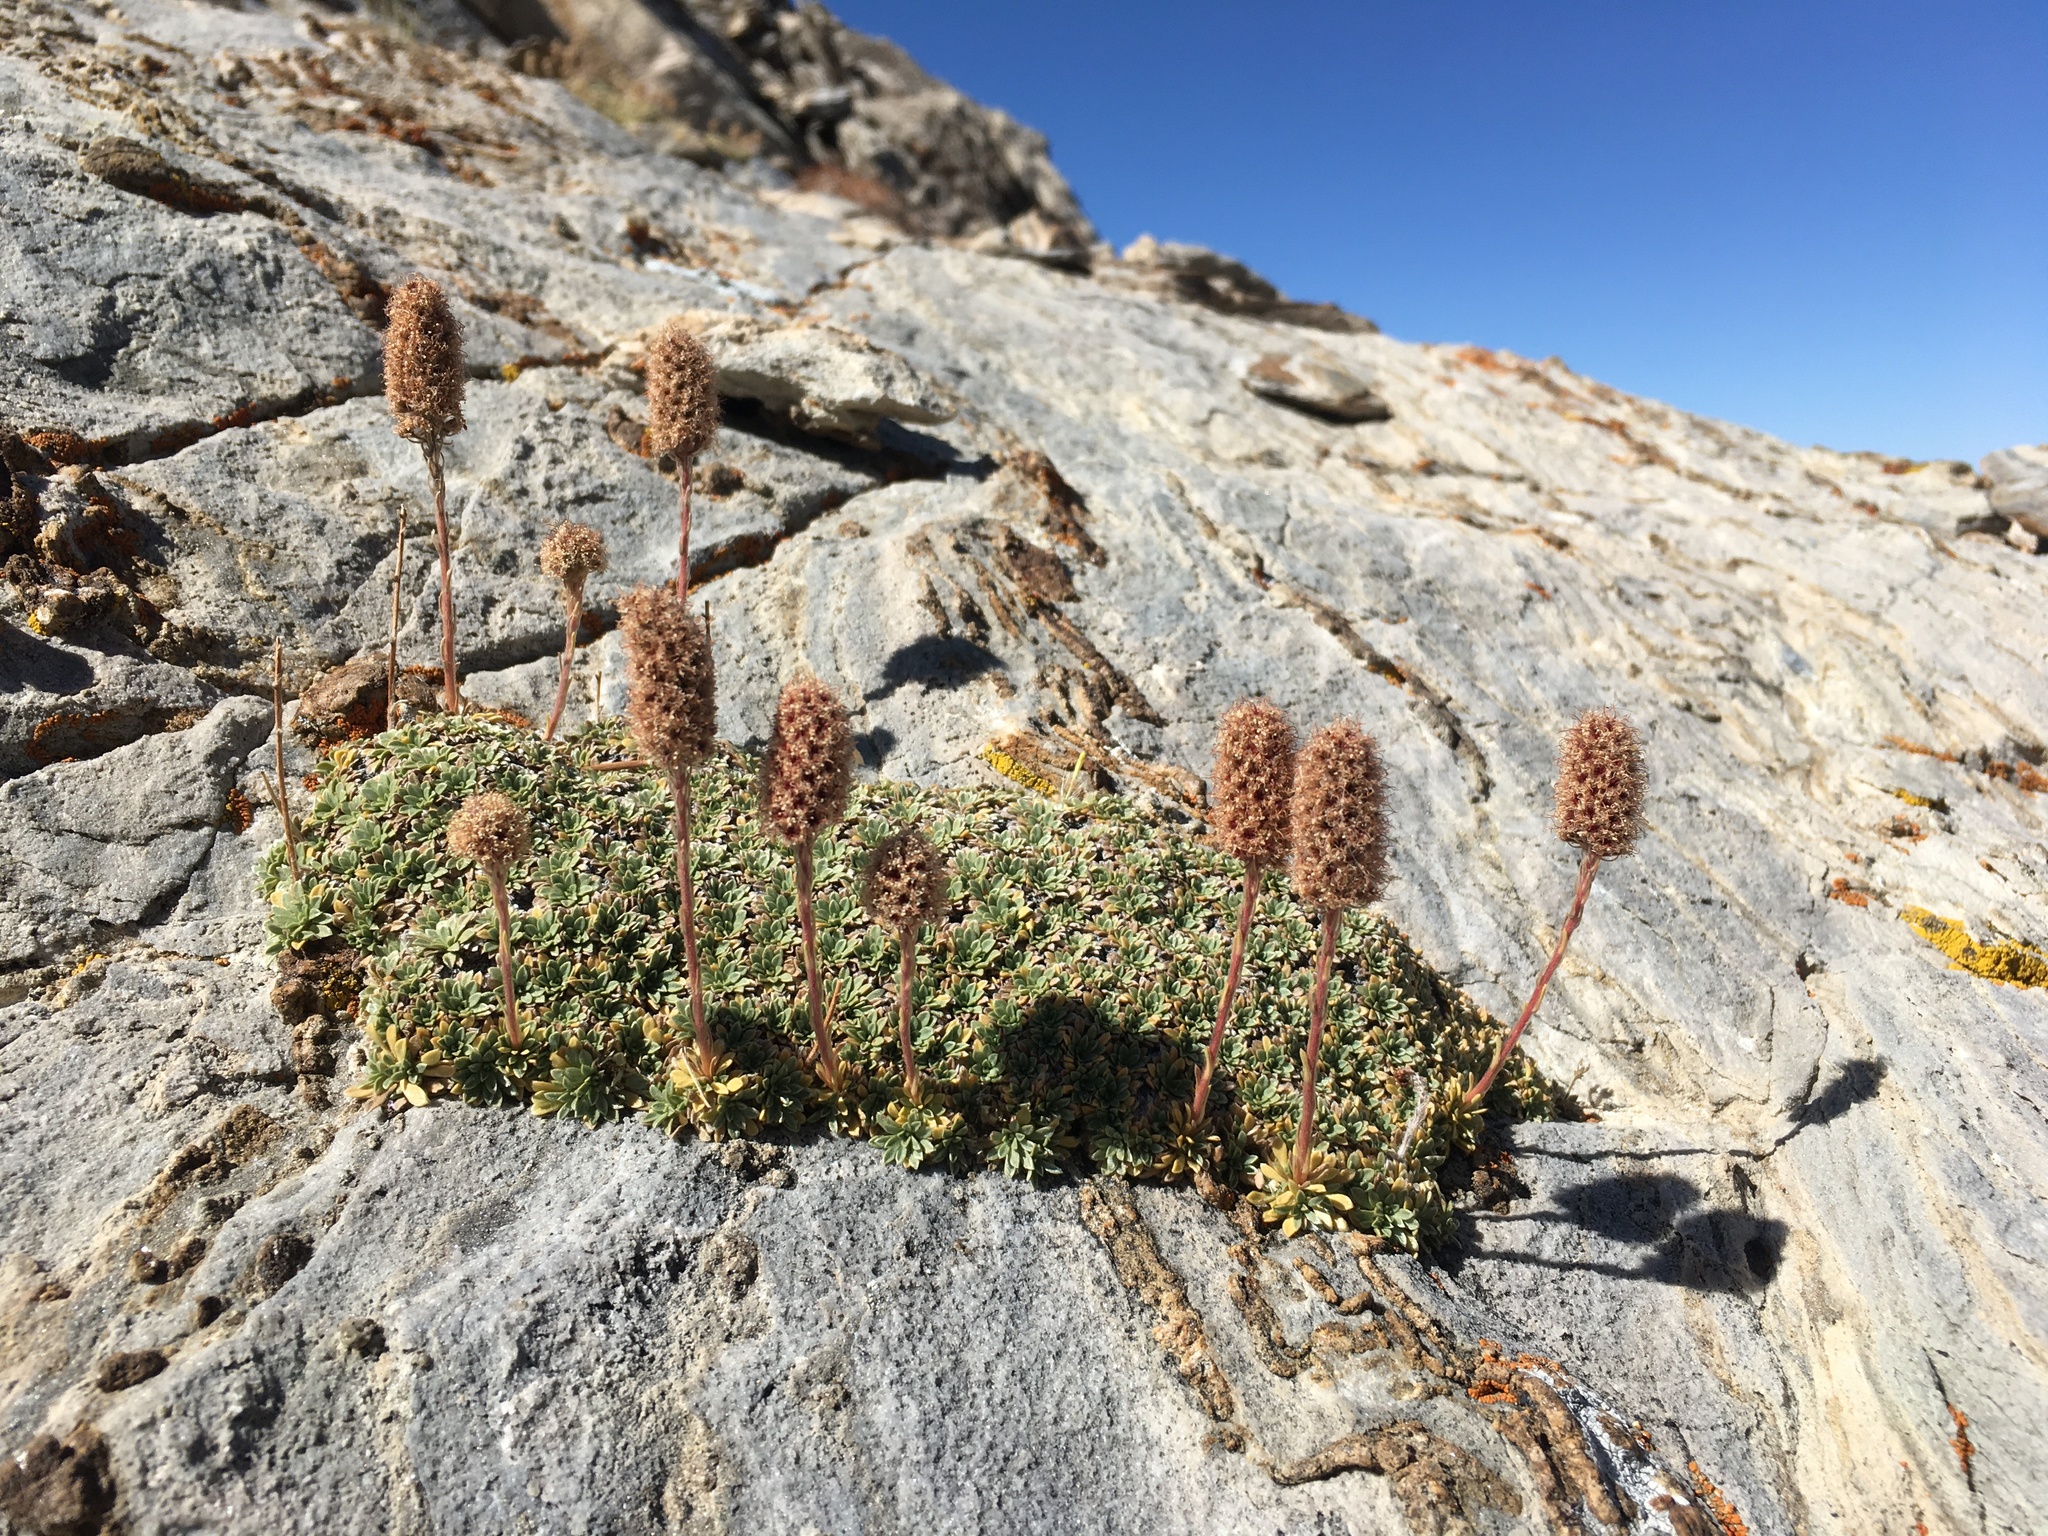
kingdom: Plantae
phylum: Tracheophyta
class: Magnoliopsida
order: Rosales
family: Rosaceae
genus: Petrophytum
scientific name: Petrophytum caespitosum
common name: Mat rockspirea
